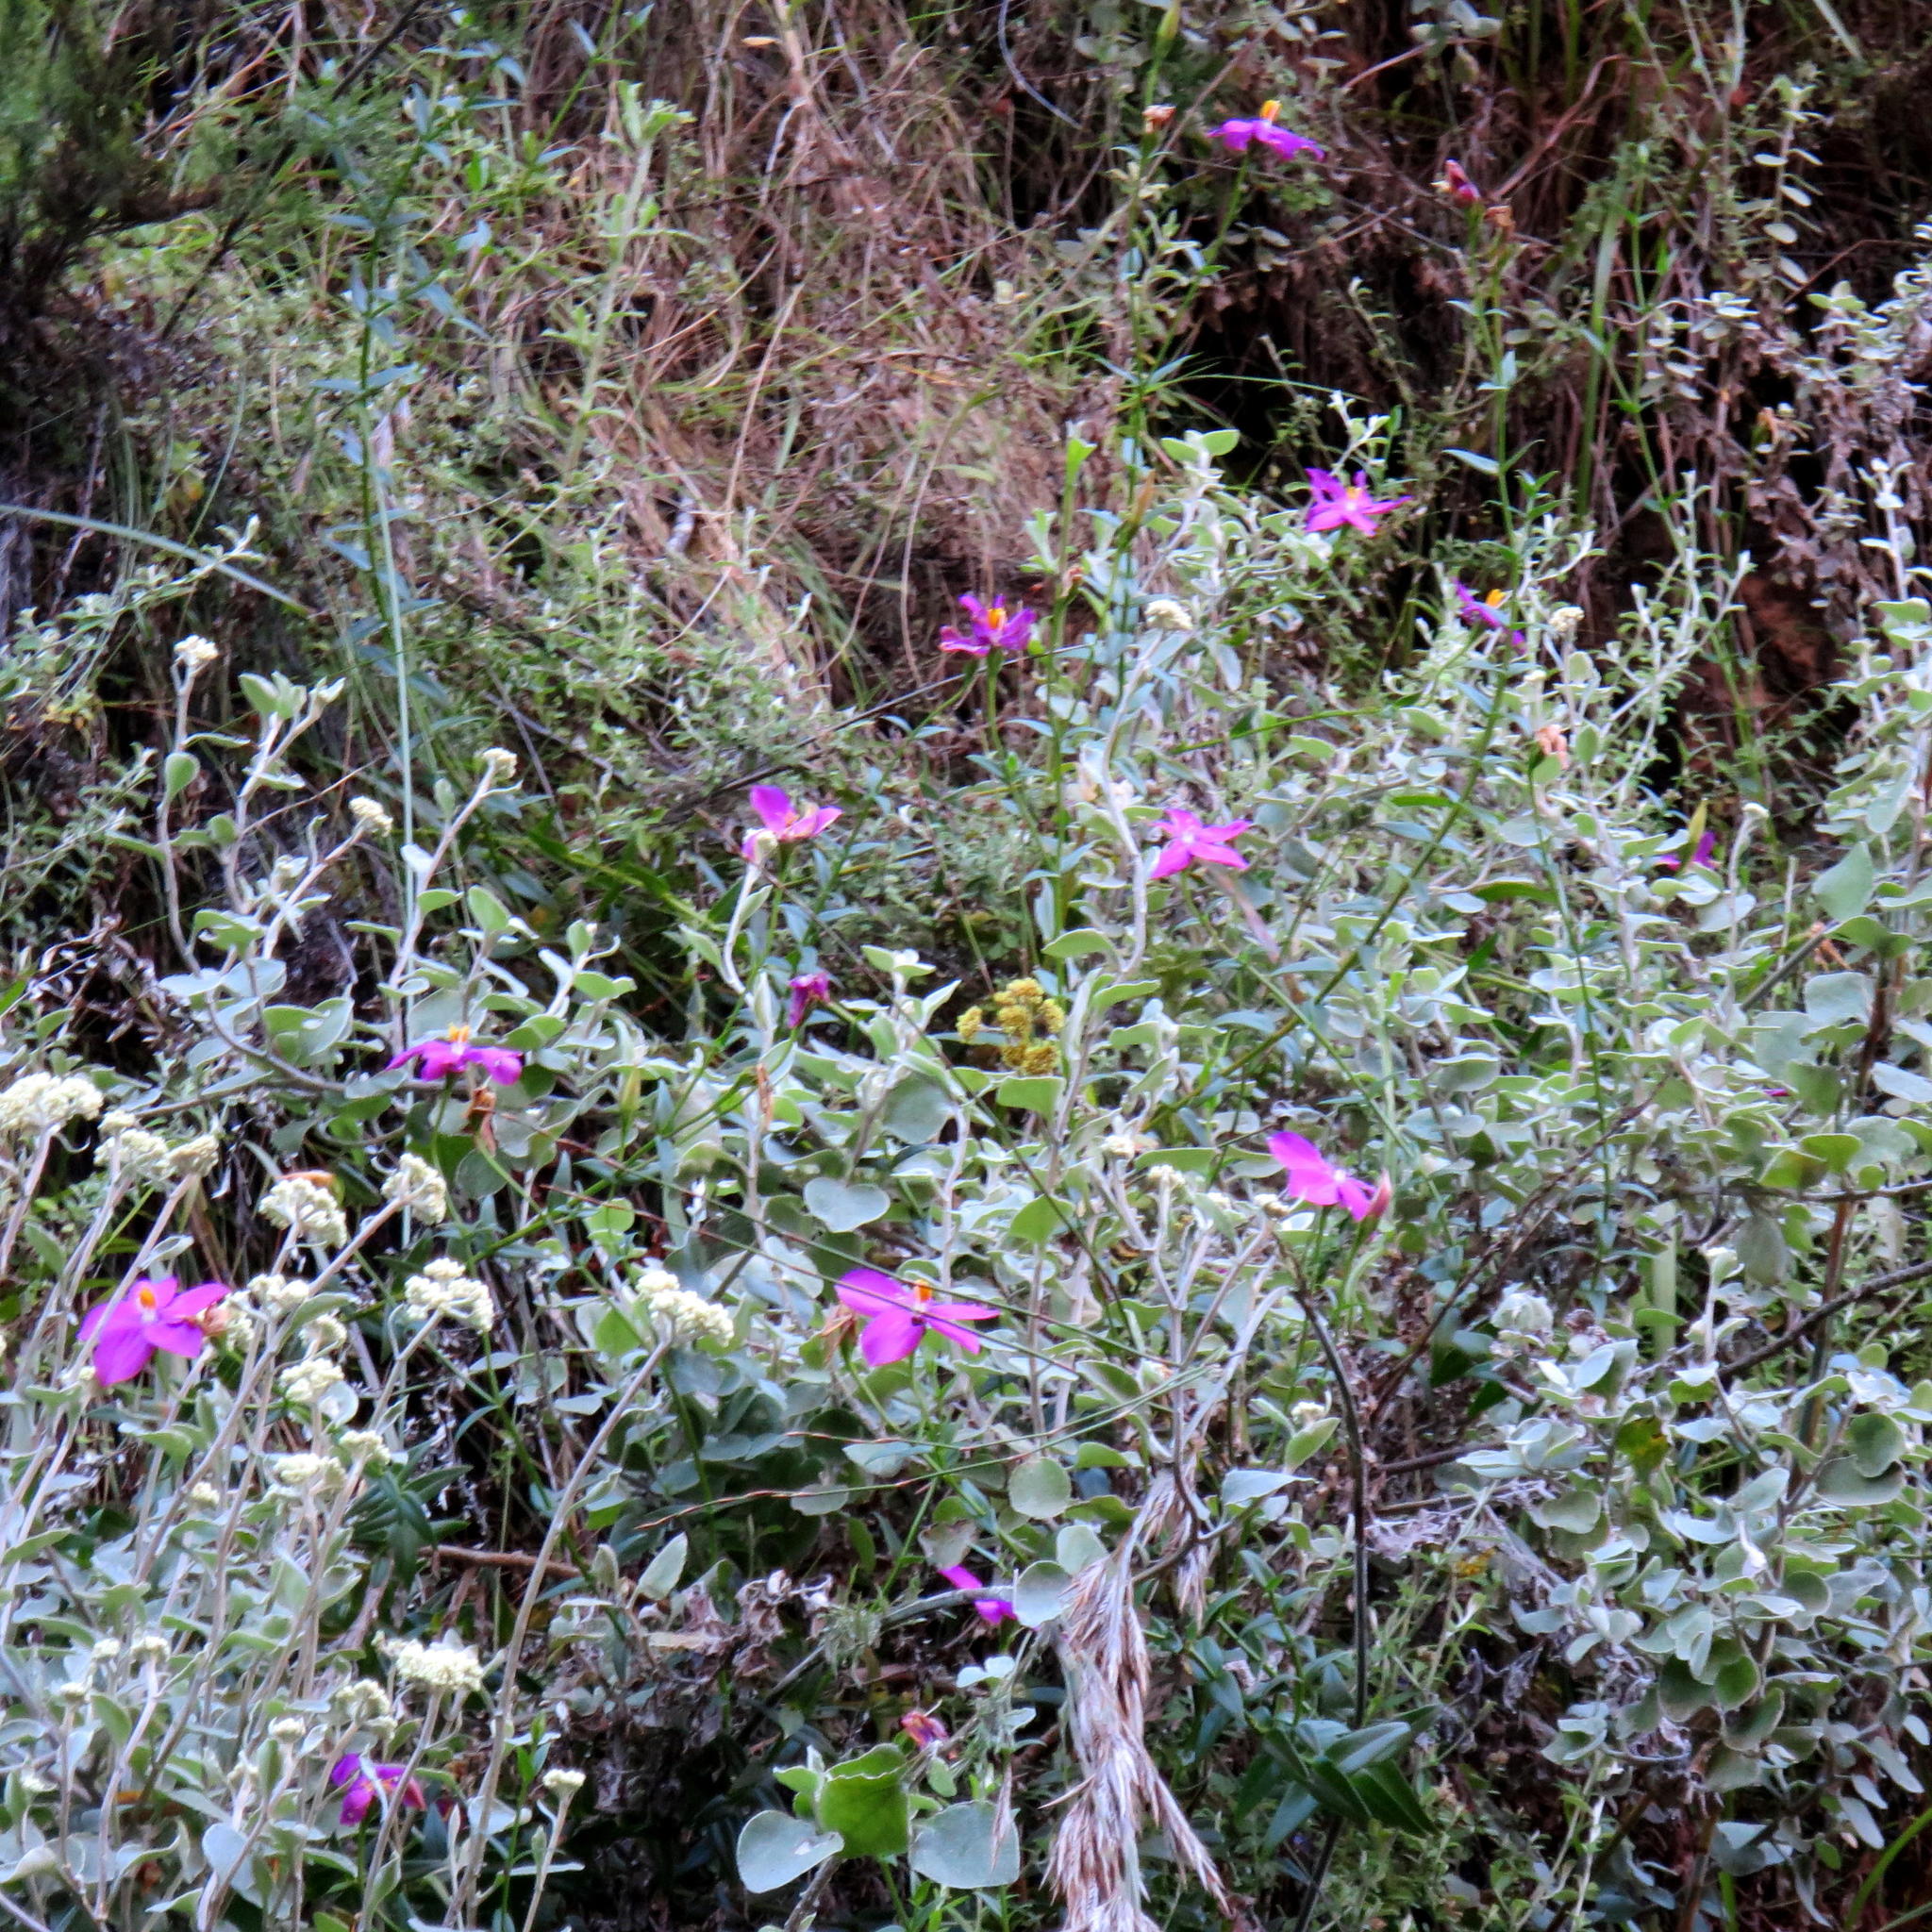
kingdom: Plantae
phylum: Tracheophyta
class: Magnoliopsida
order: Gentianales
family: Gentianaceae
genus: Chironia
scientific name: Chironia melampyrifolia
